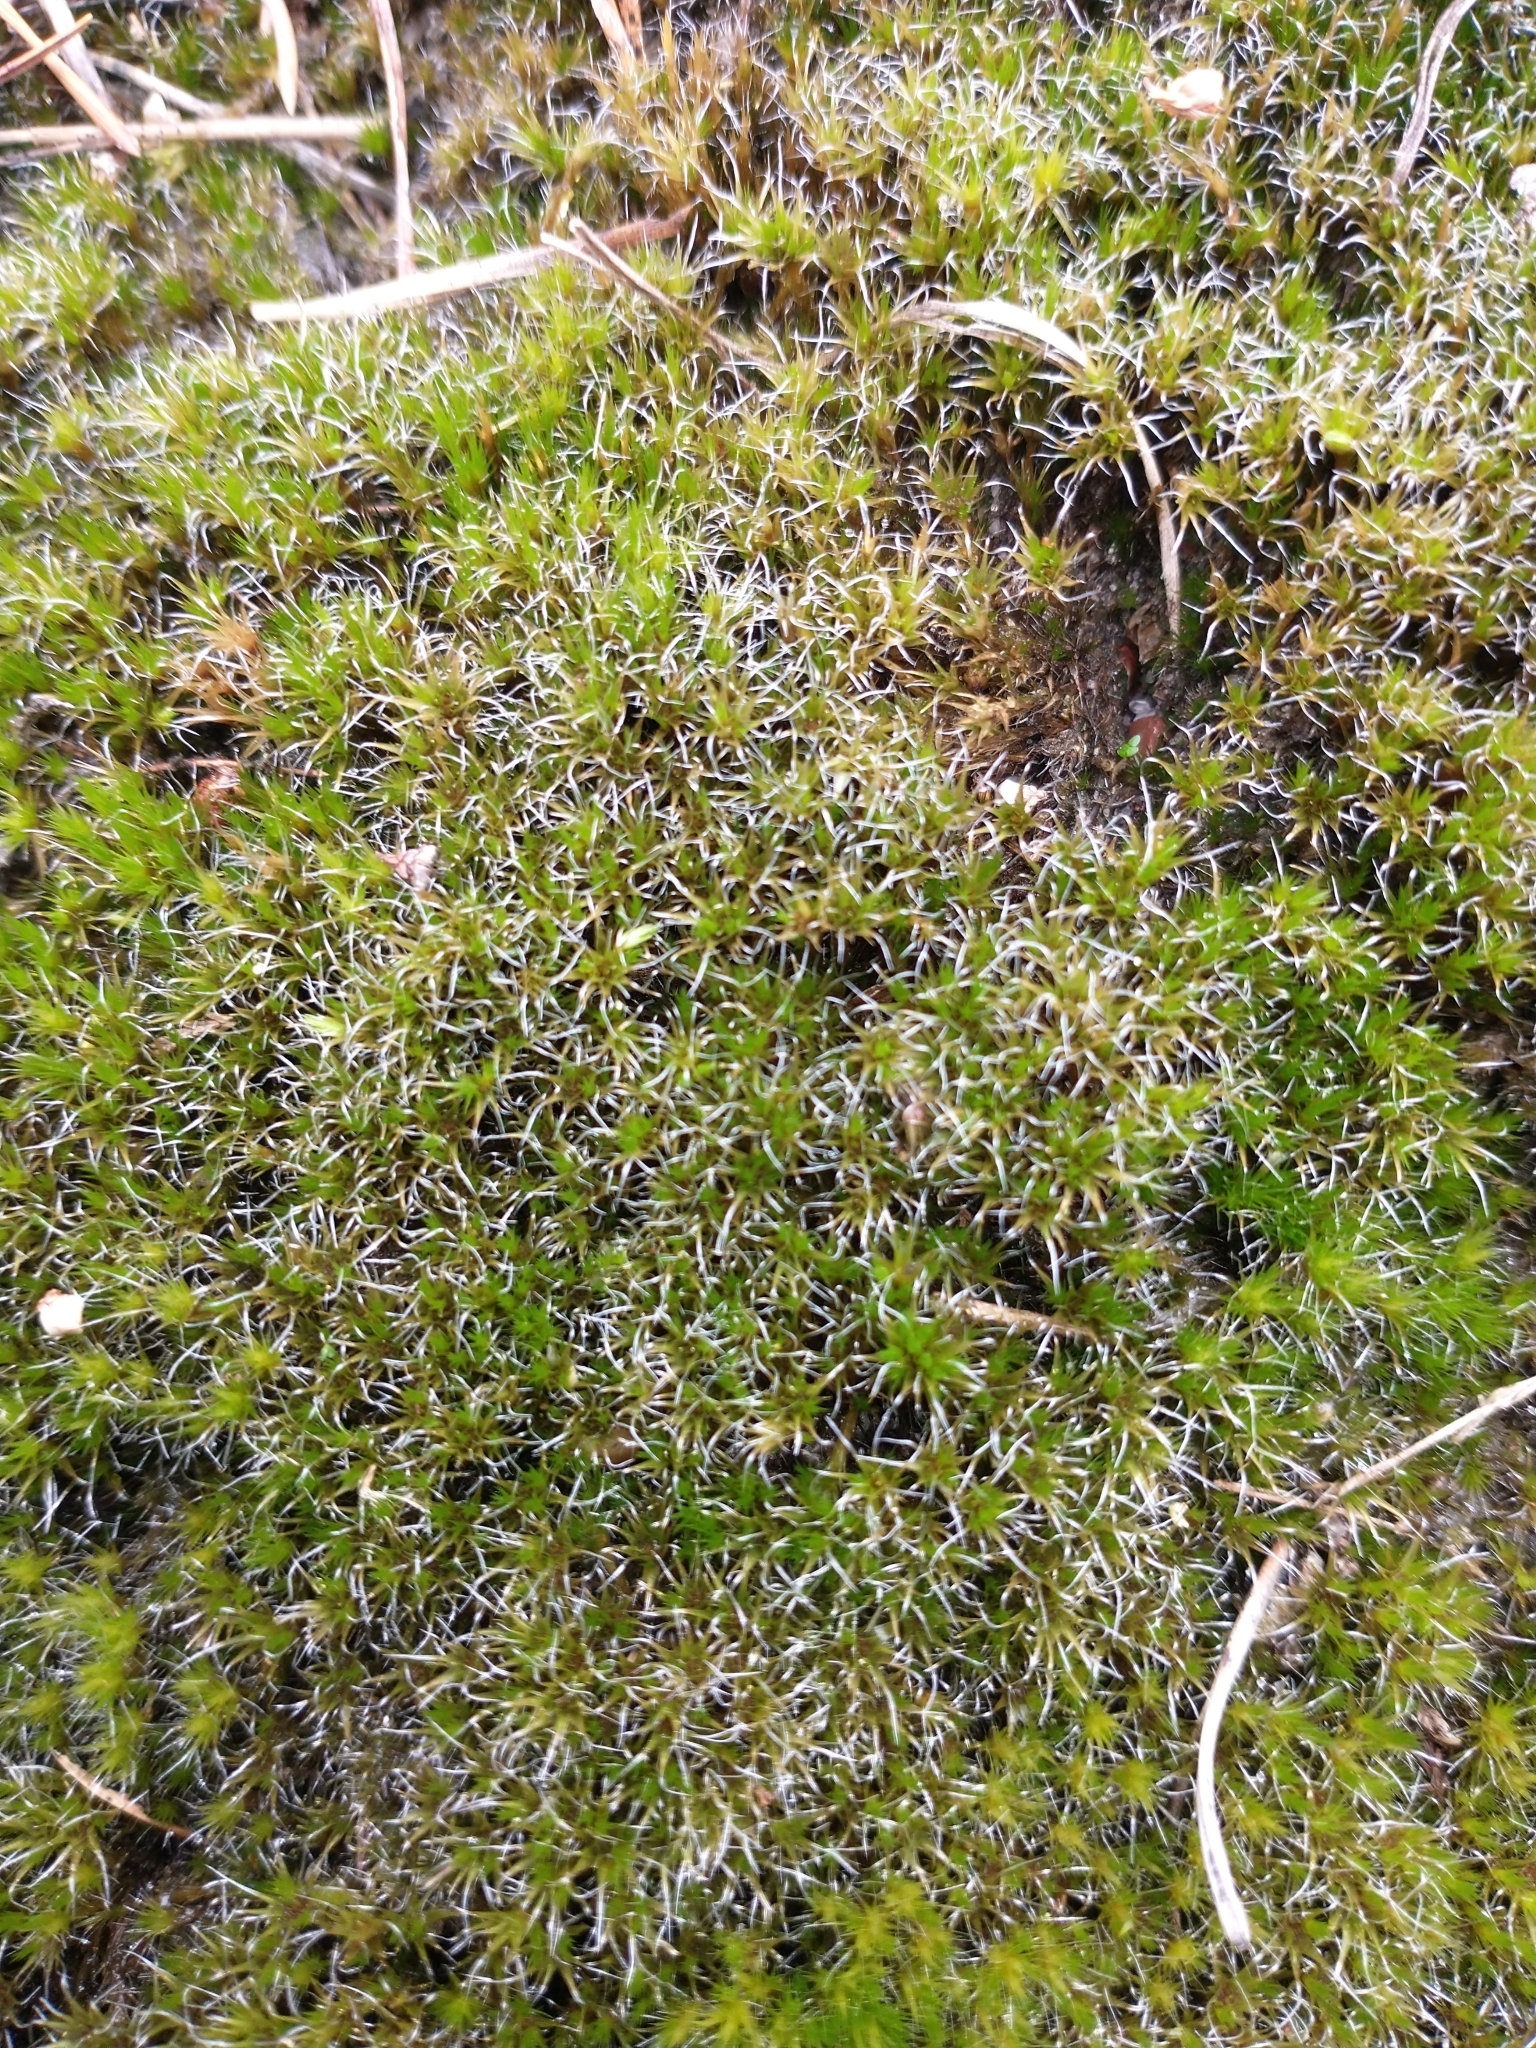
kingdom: Plantae
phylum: Bryophyta
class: Bryopsida
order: Dicranales
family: Leucobryaceae
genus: Campylopus
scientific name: Campylopus introflexus
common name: Heath star moss
